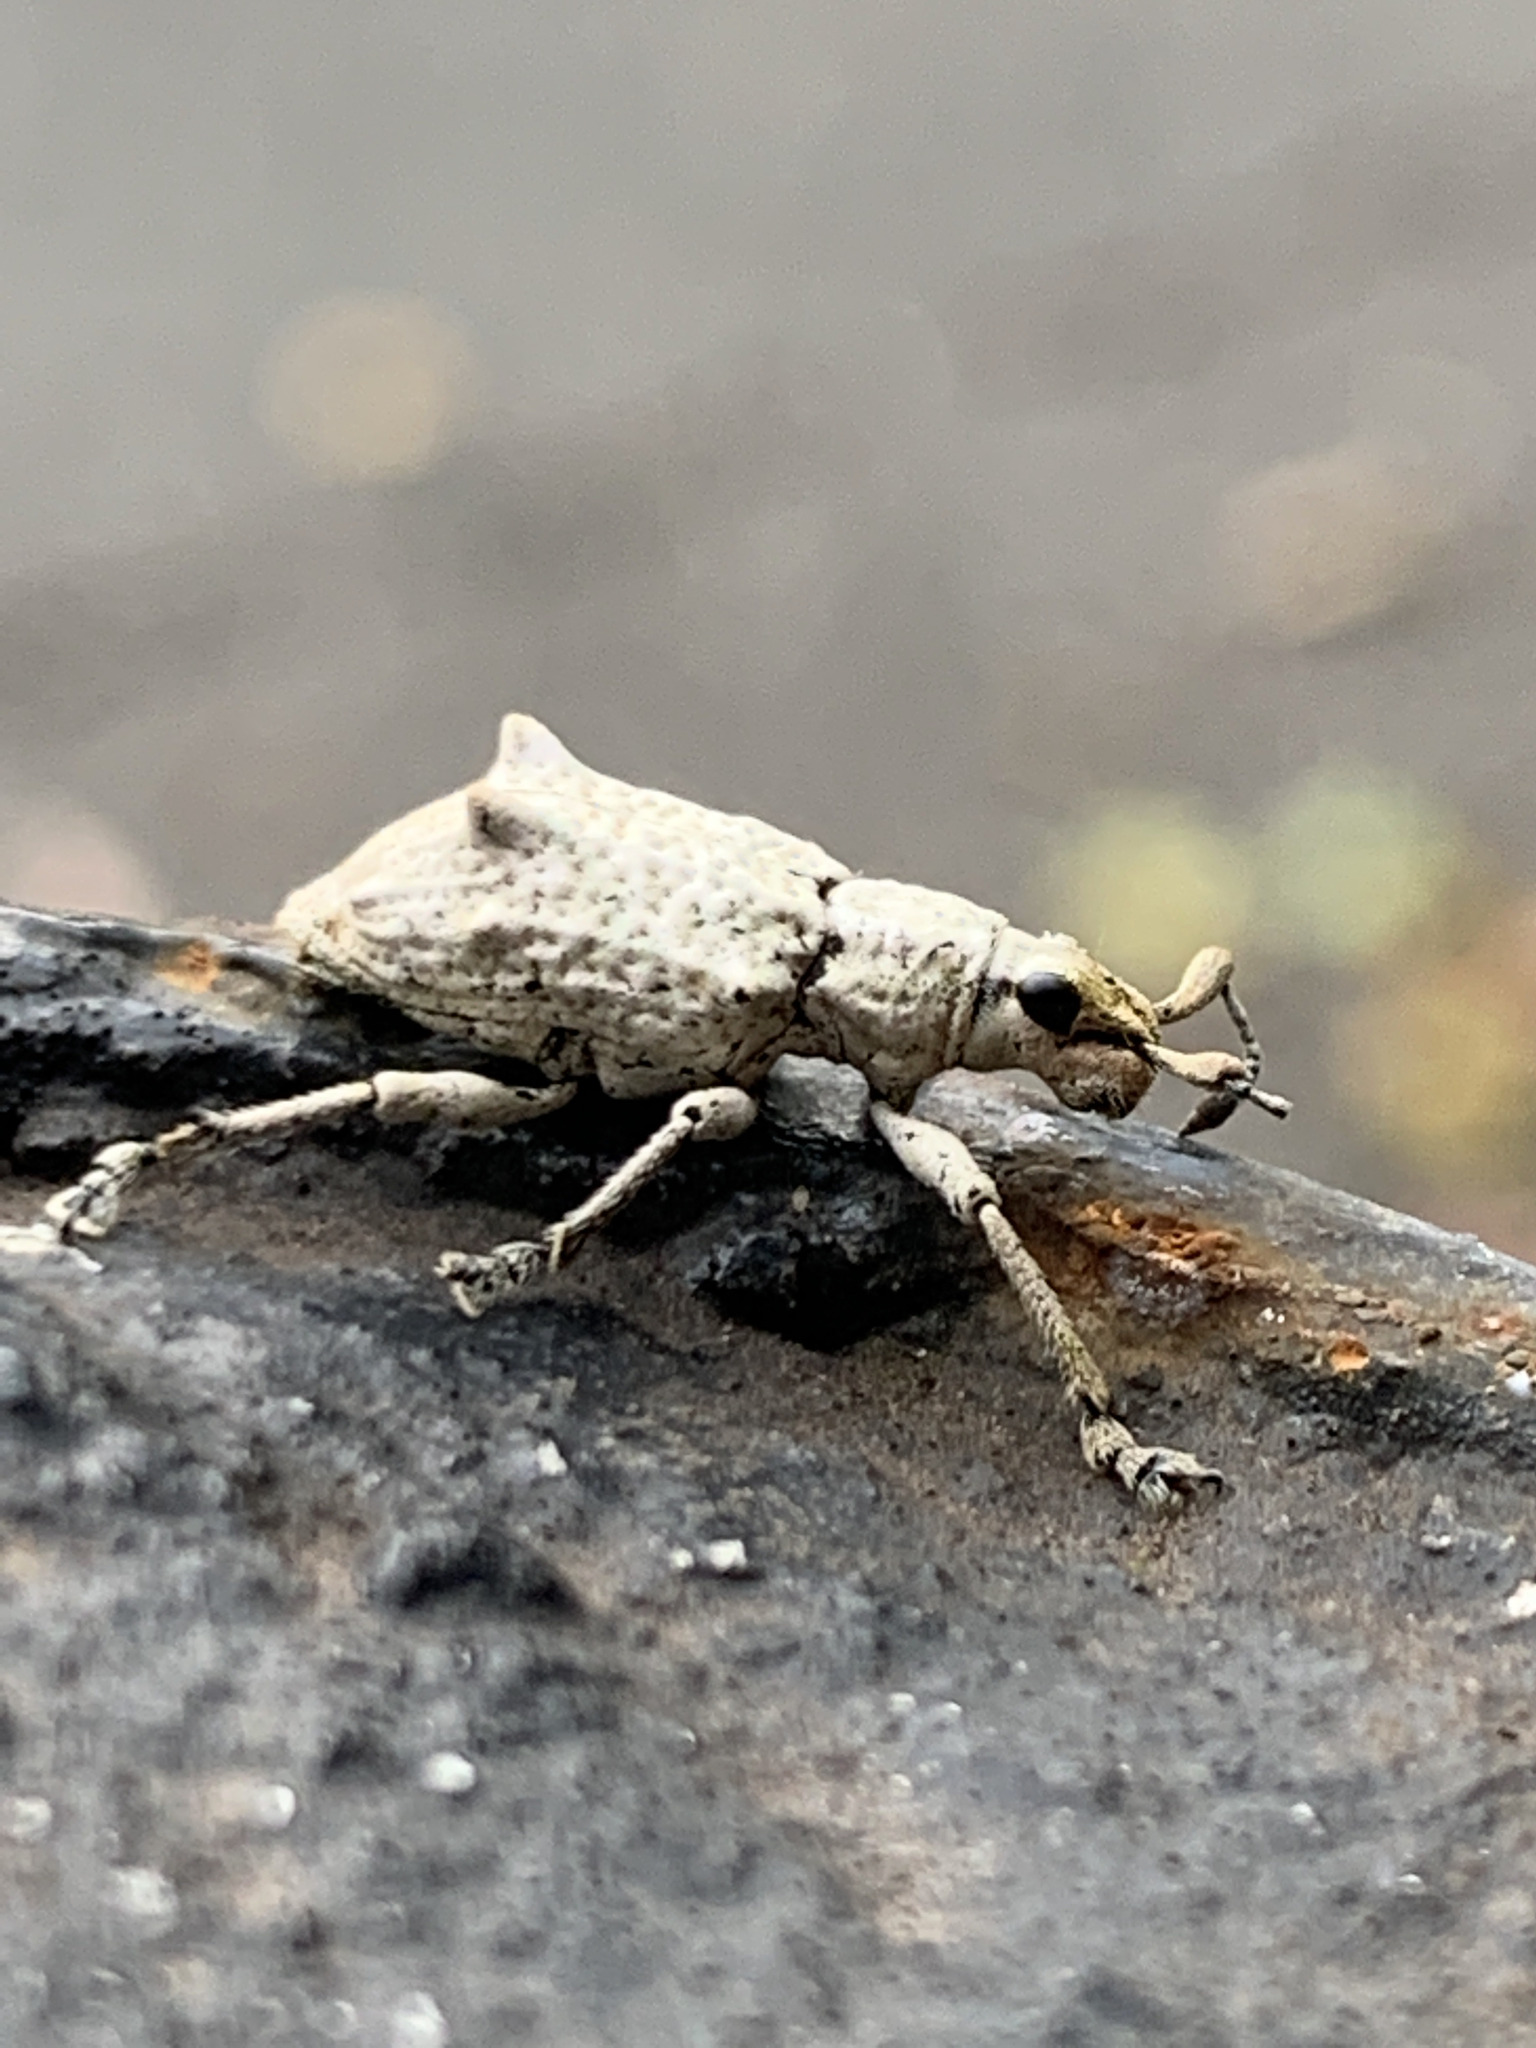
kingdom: Animalia
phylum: Arthropoda
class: Insecta
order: Coleoptera
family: Curculionidae
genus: Platyomus
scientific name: Platyomus piscatorius
